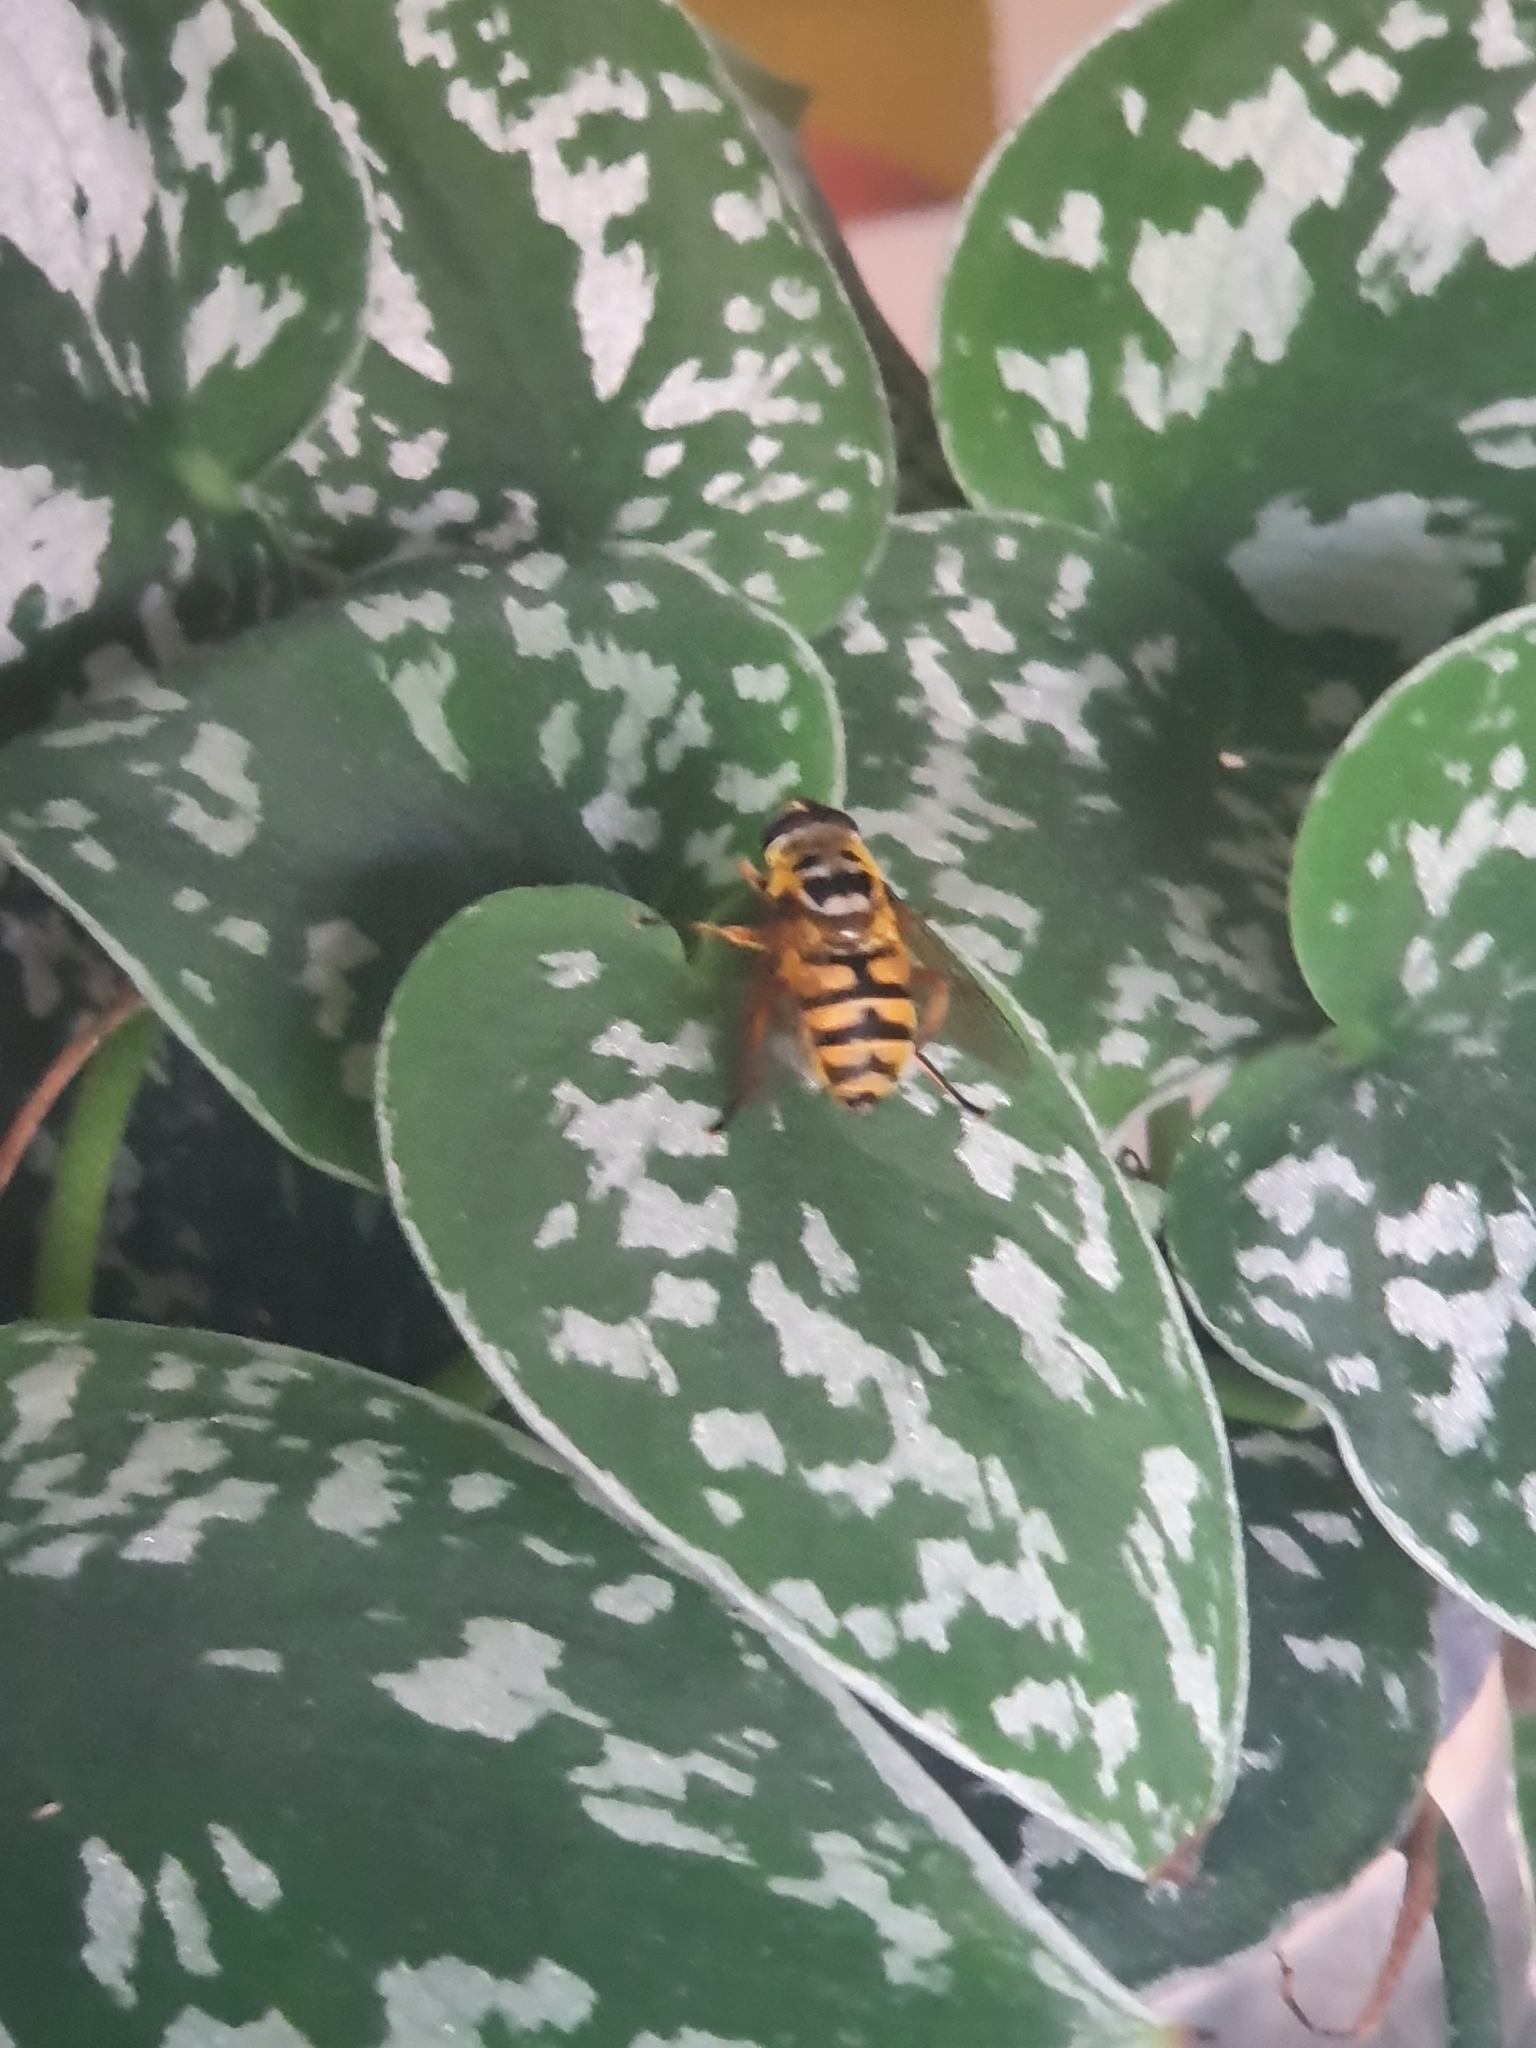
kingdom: Animalia
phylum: Arthropoda
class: Insecta
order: Diptera
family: Syrphidae
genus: Myathropa
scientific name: Myathropa florea
